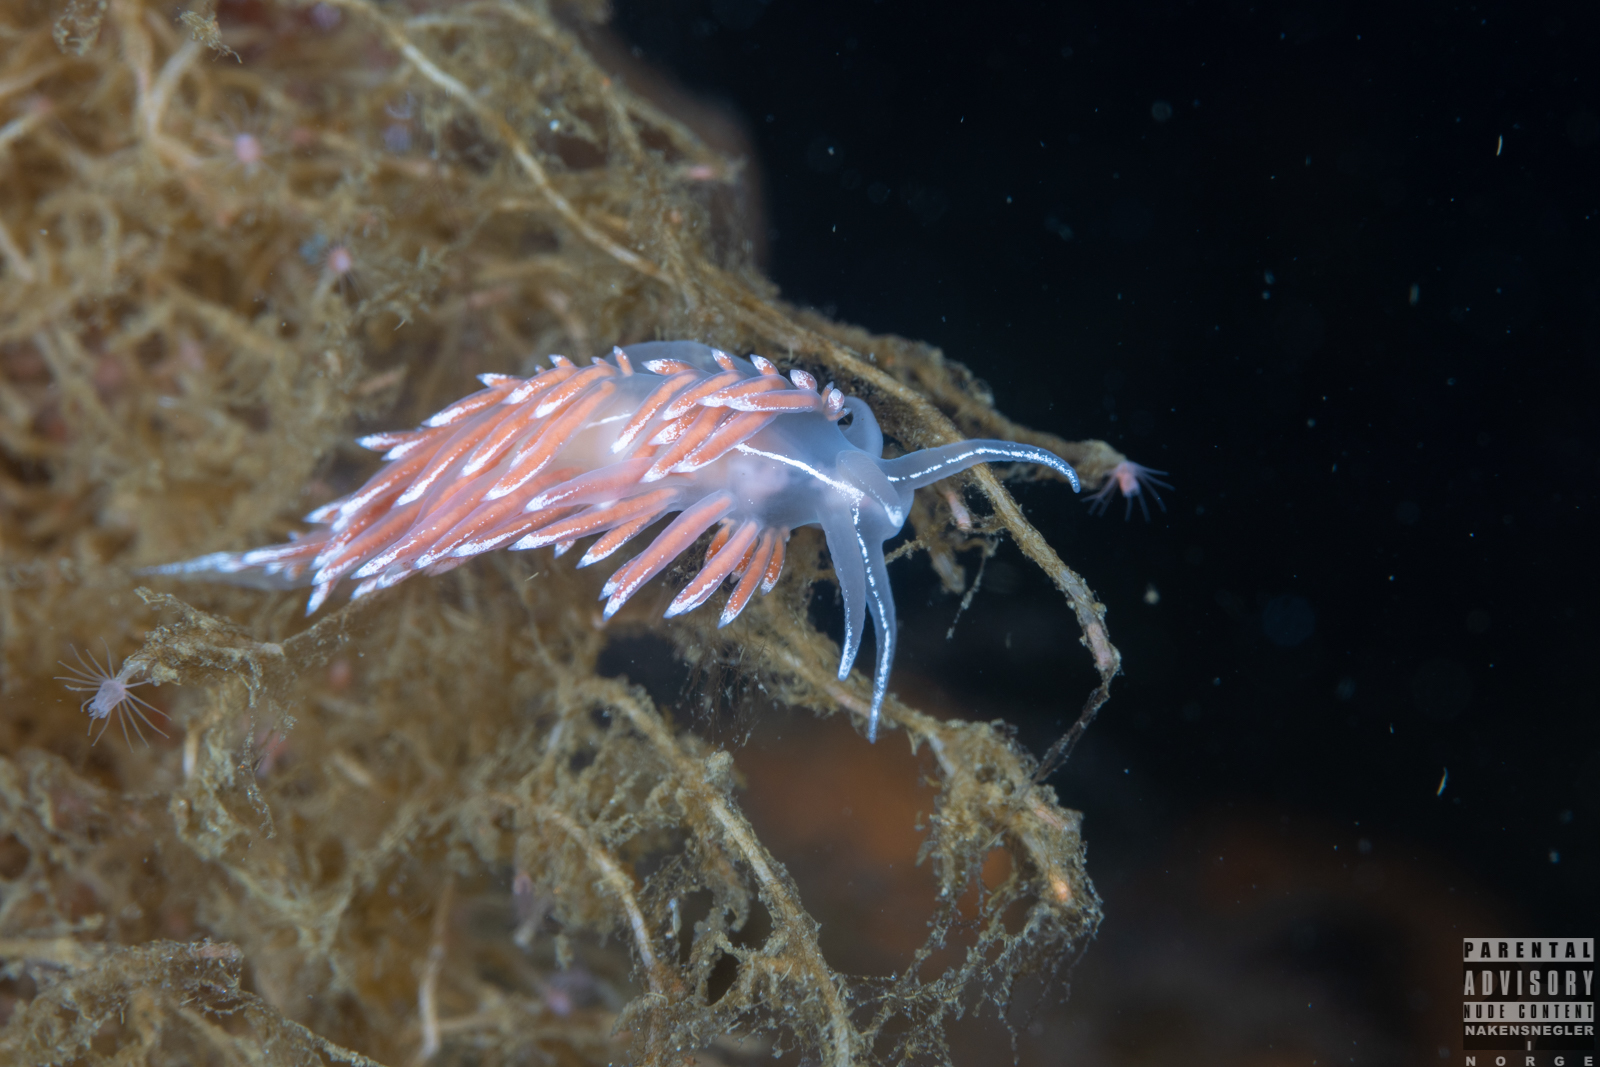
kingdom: Animalia
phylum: Mollusca
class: Gastropoda
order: Nudibranchia
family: Coryphellidae
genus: Coryphella
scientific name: Coryphella lineata
